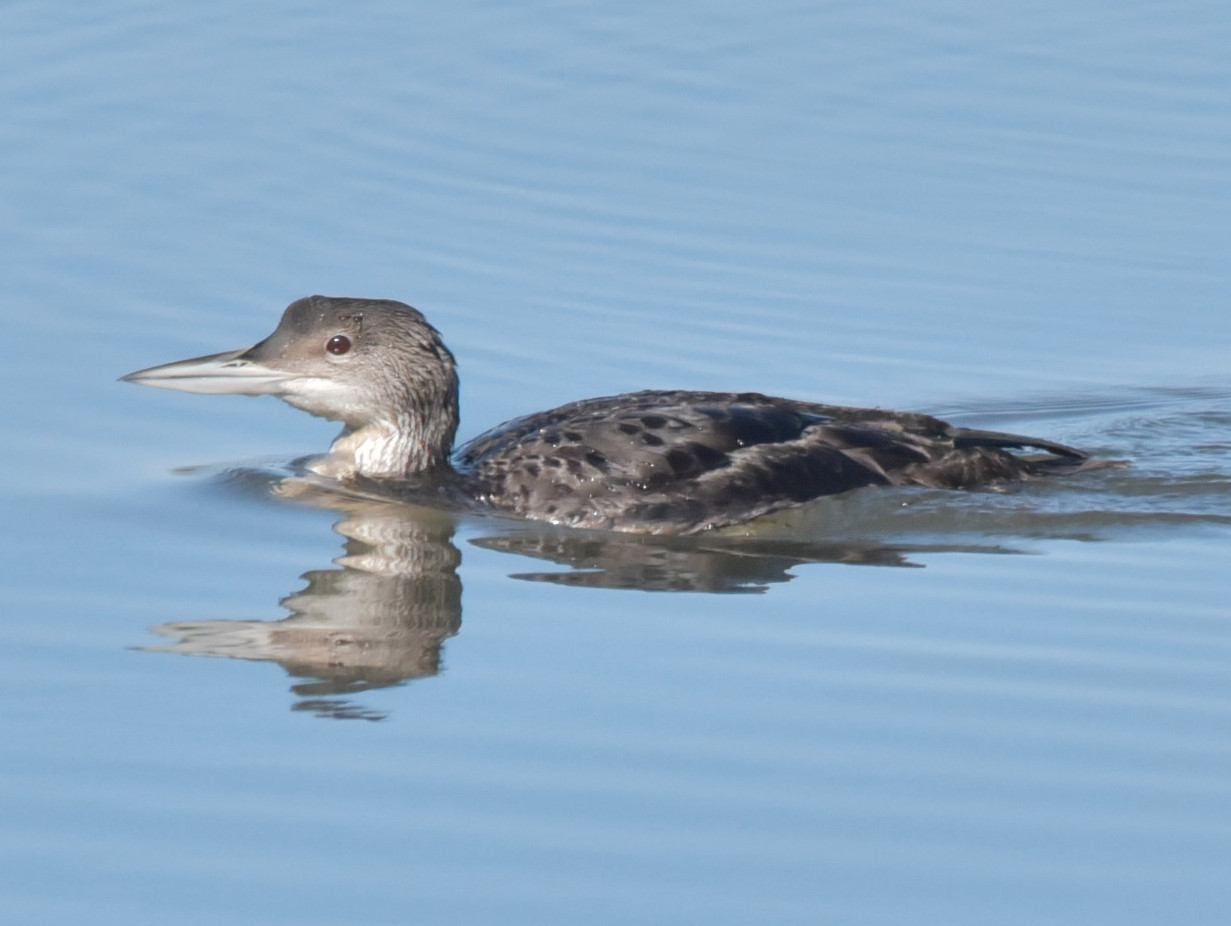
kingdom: Animalia
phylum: Chordata
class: Aves
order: Gaviiformes
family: Gaviidae
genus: Gavia
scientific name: Gavia immer
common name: Common loon
